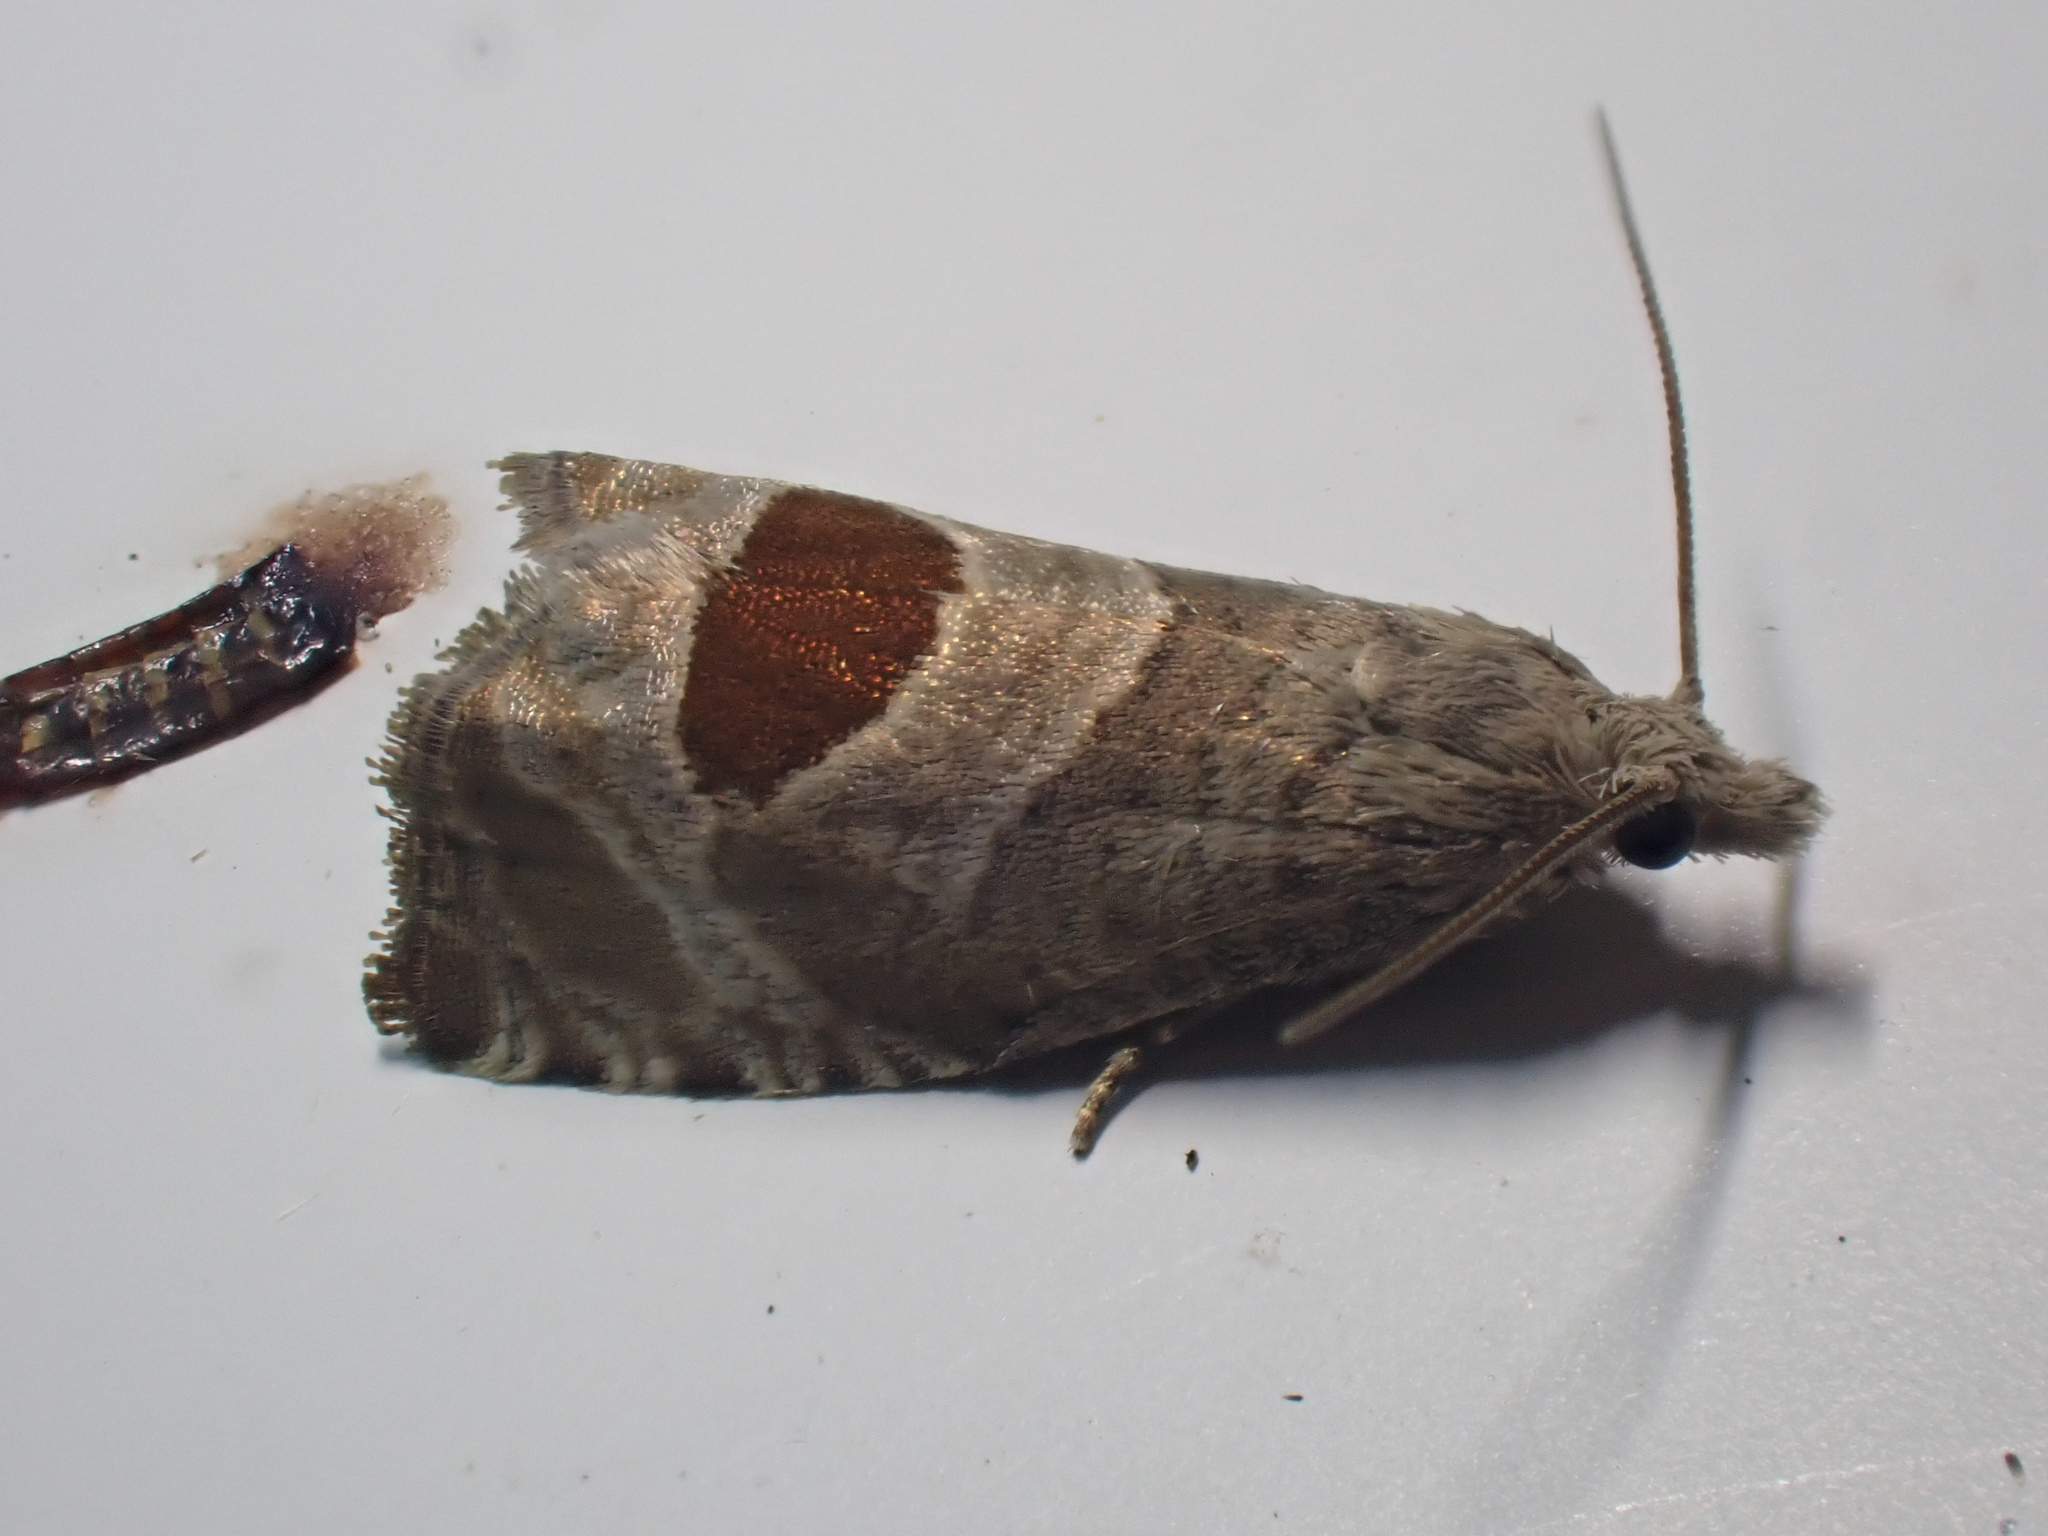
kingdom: Animalia
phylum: Arthropoda
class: Insecta
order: Lepidoptera
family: Tortricidae
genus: Notocelia
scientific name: Notocelia uddmanniana
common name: Bramble shoot moth
